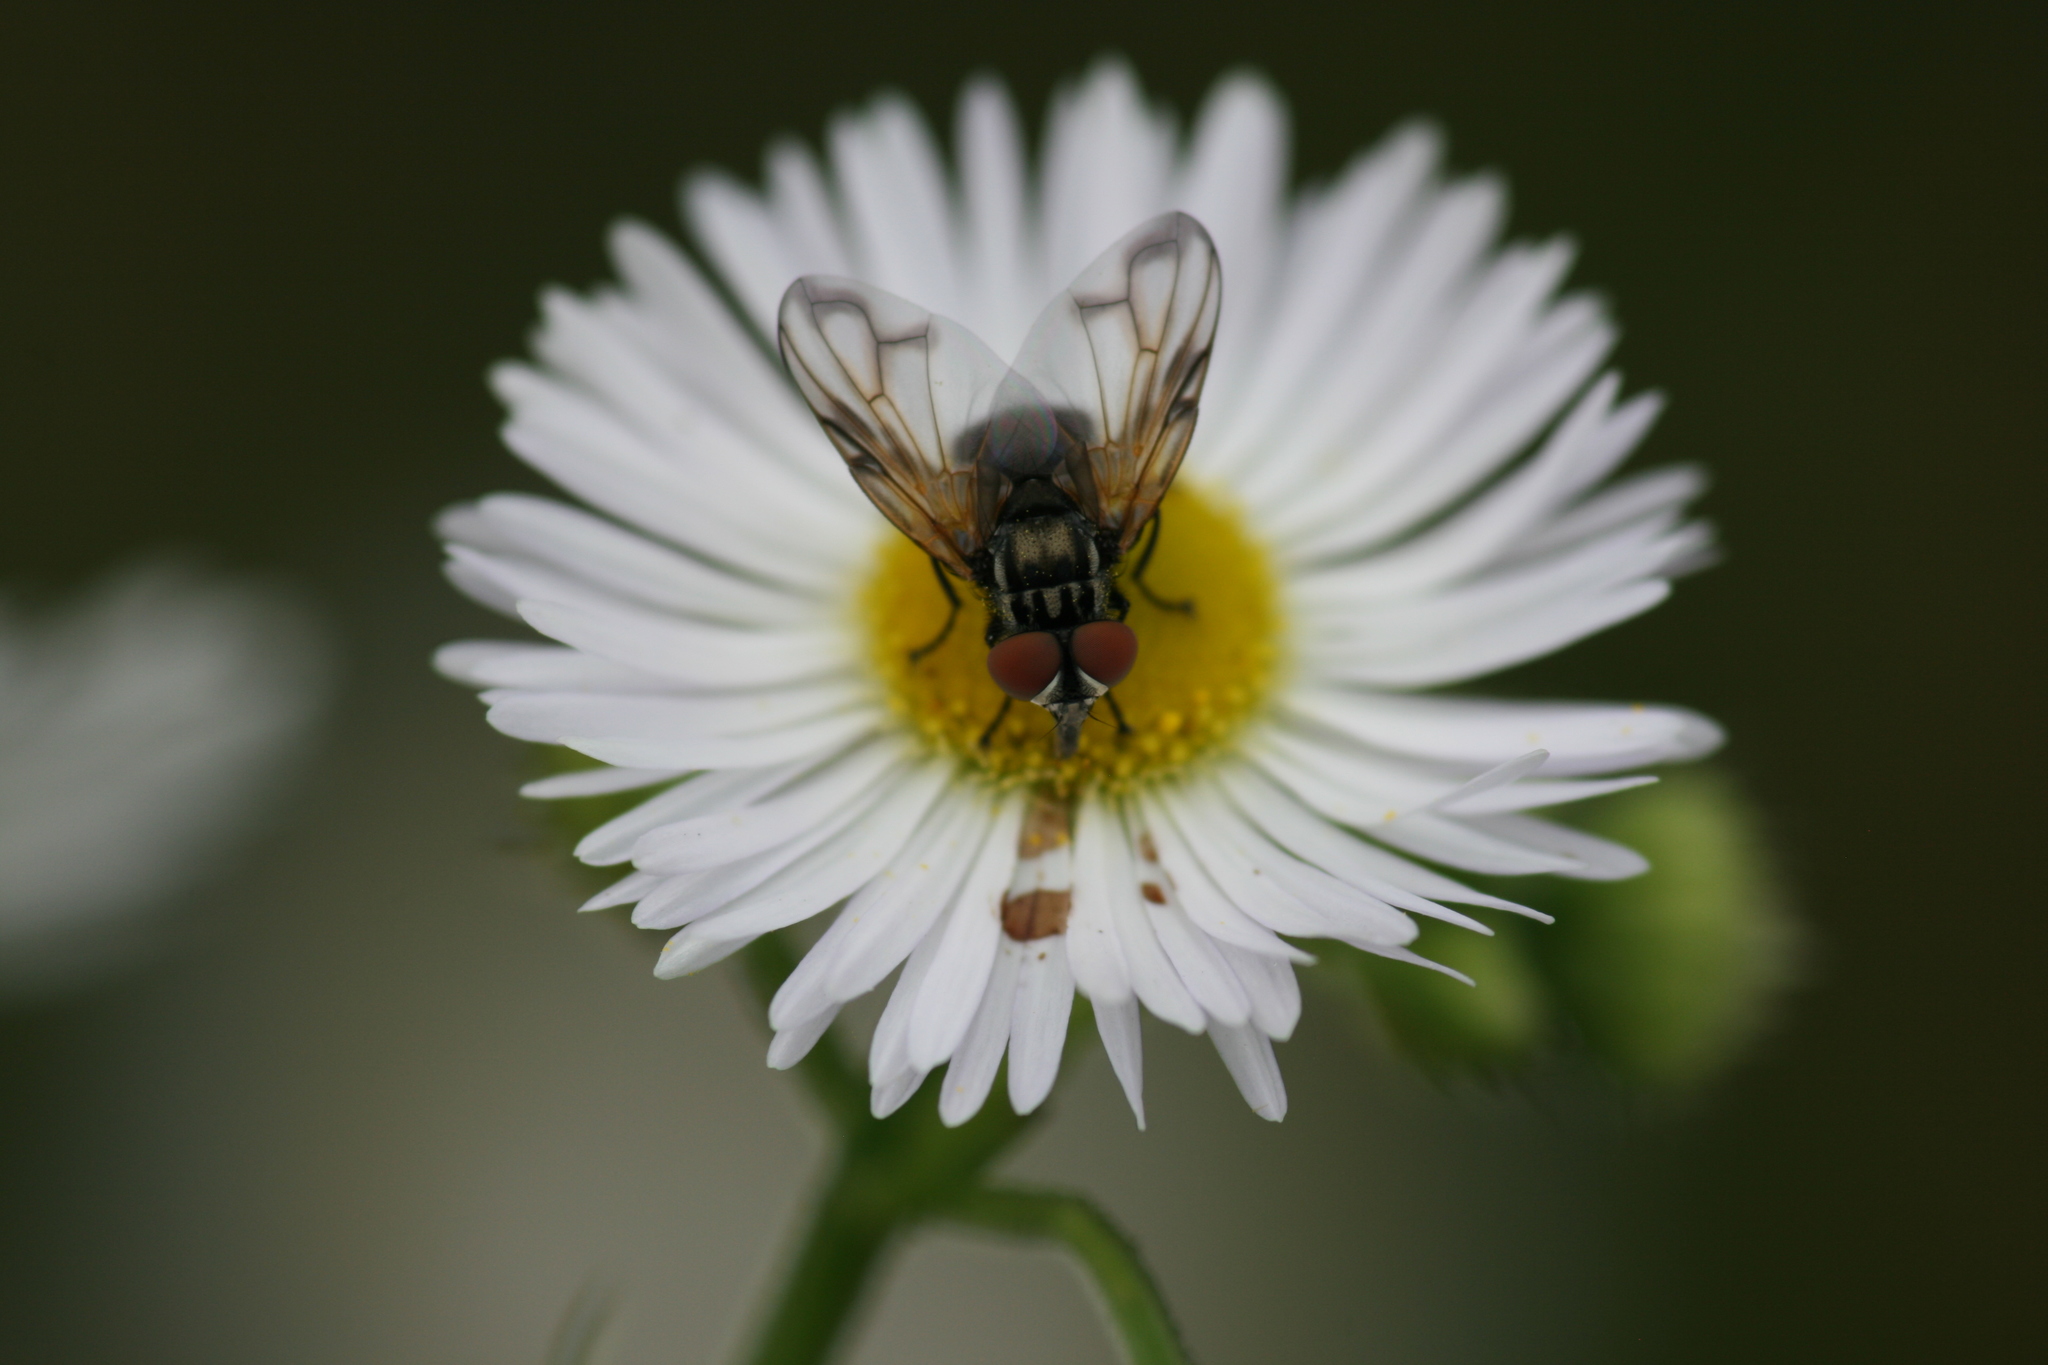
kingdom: Animalia
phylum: Arthropoda
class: Insecta
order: Diptera
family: Tachinidae
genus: Phasia
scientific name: Phasia obesa
